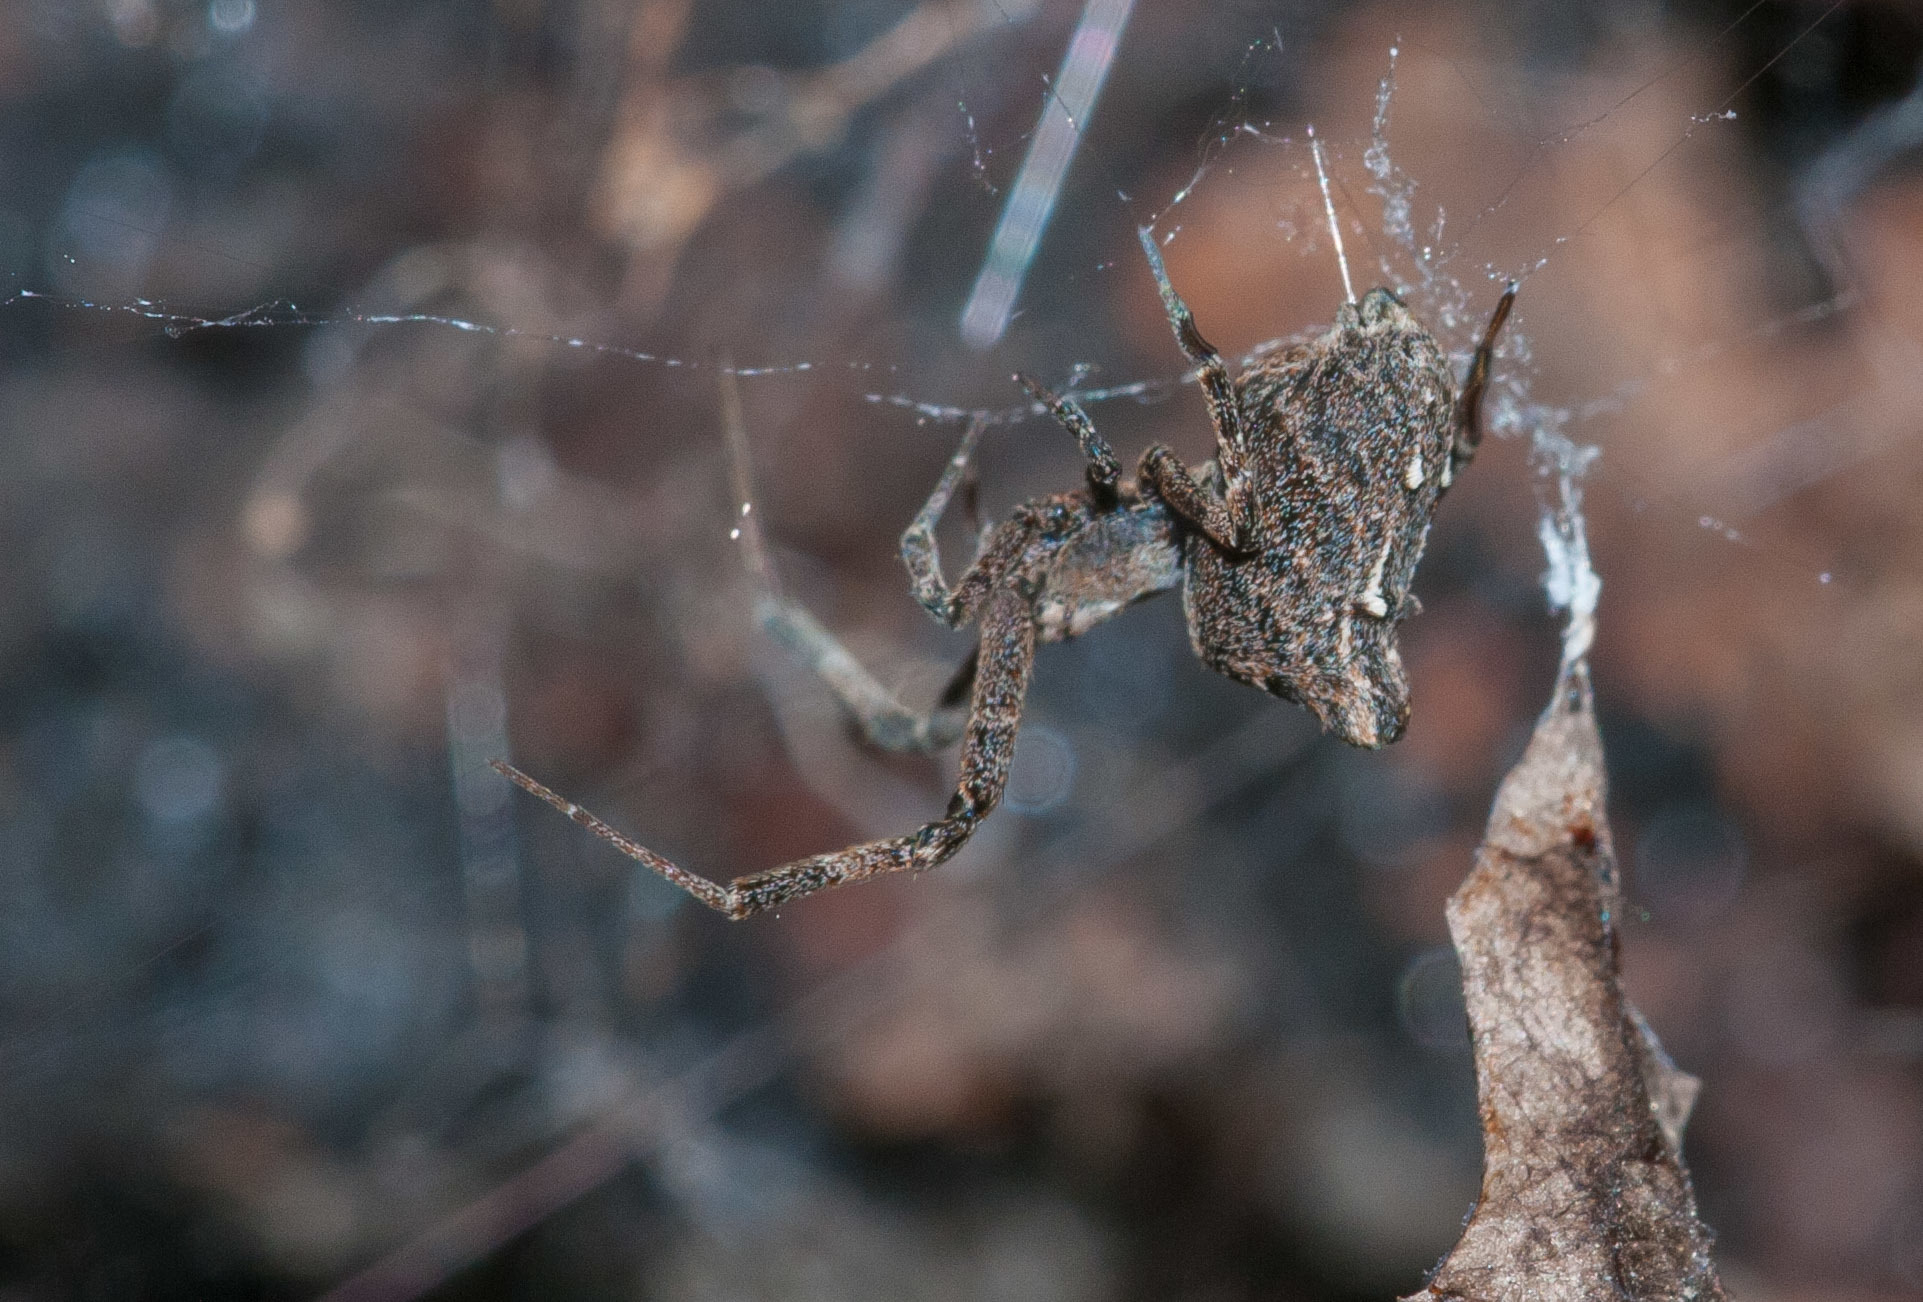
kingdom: Animalia
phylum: Arthropoda
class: Arachnida
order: Araneae
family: Uloboridae
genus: Philoponella
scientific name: Philoponella congregabilis
